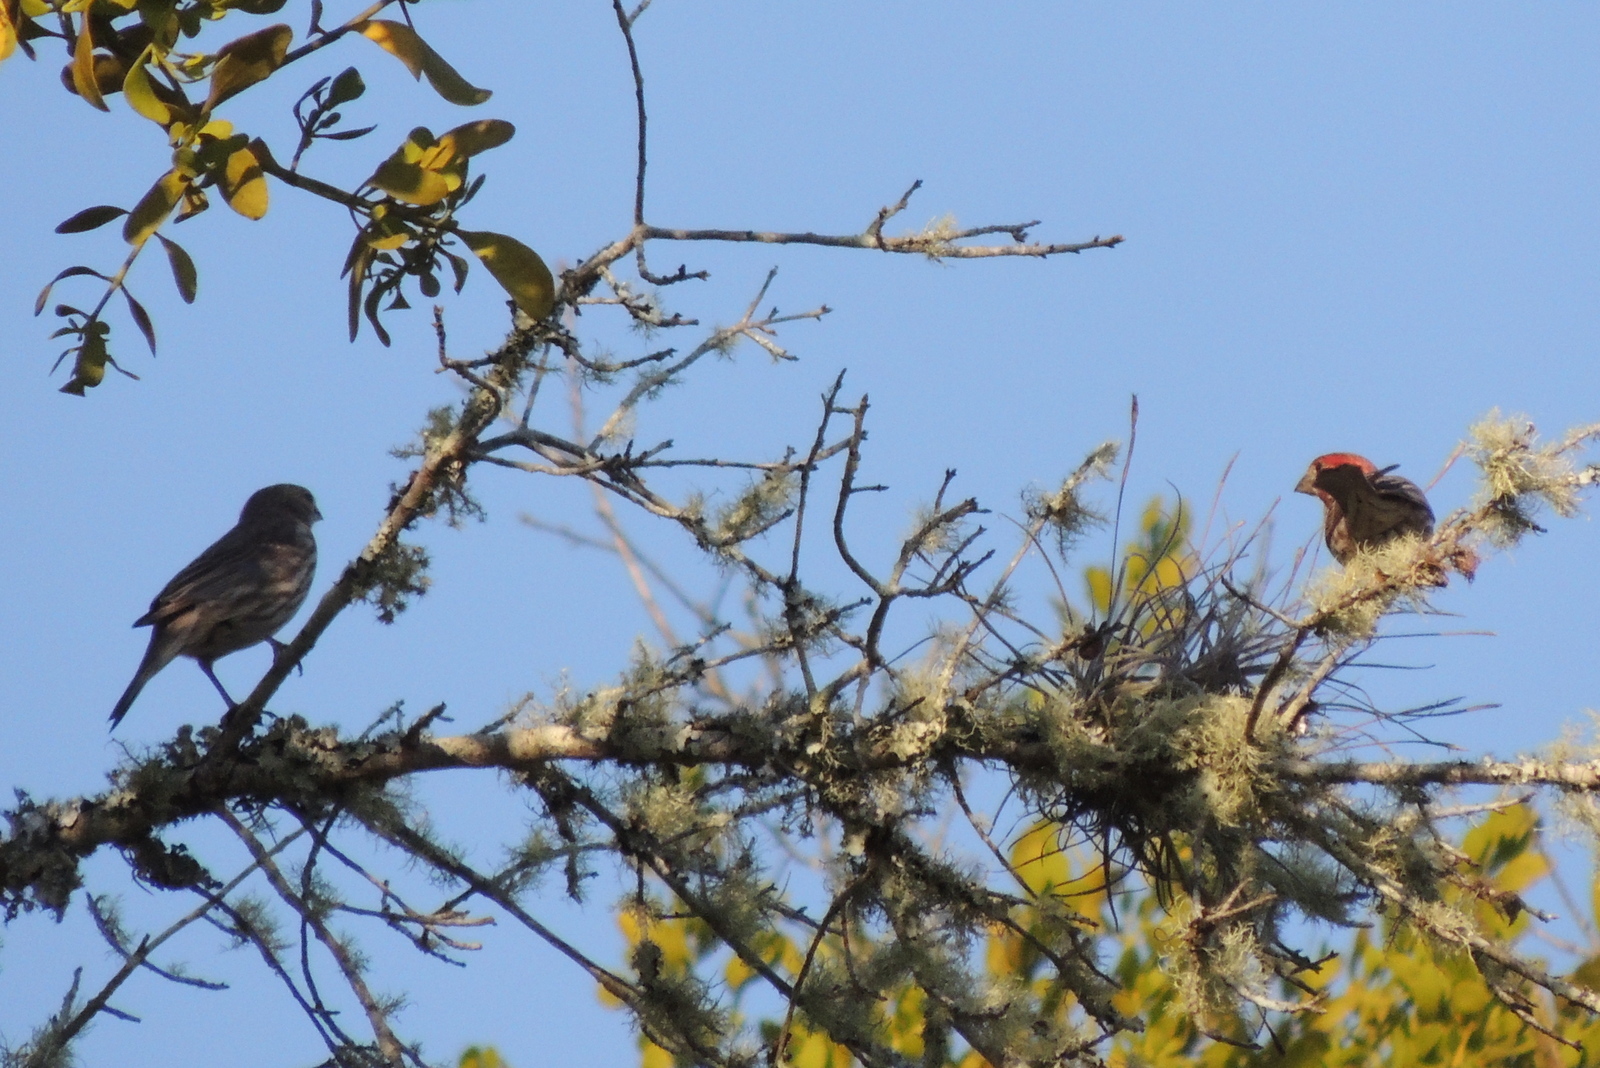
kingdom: Animalia
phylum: Chordata
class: Aves
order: Passeriformes
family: Fringillidae
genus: Haemorhous
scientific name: Haemorhous mexicanus
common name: House finch
